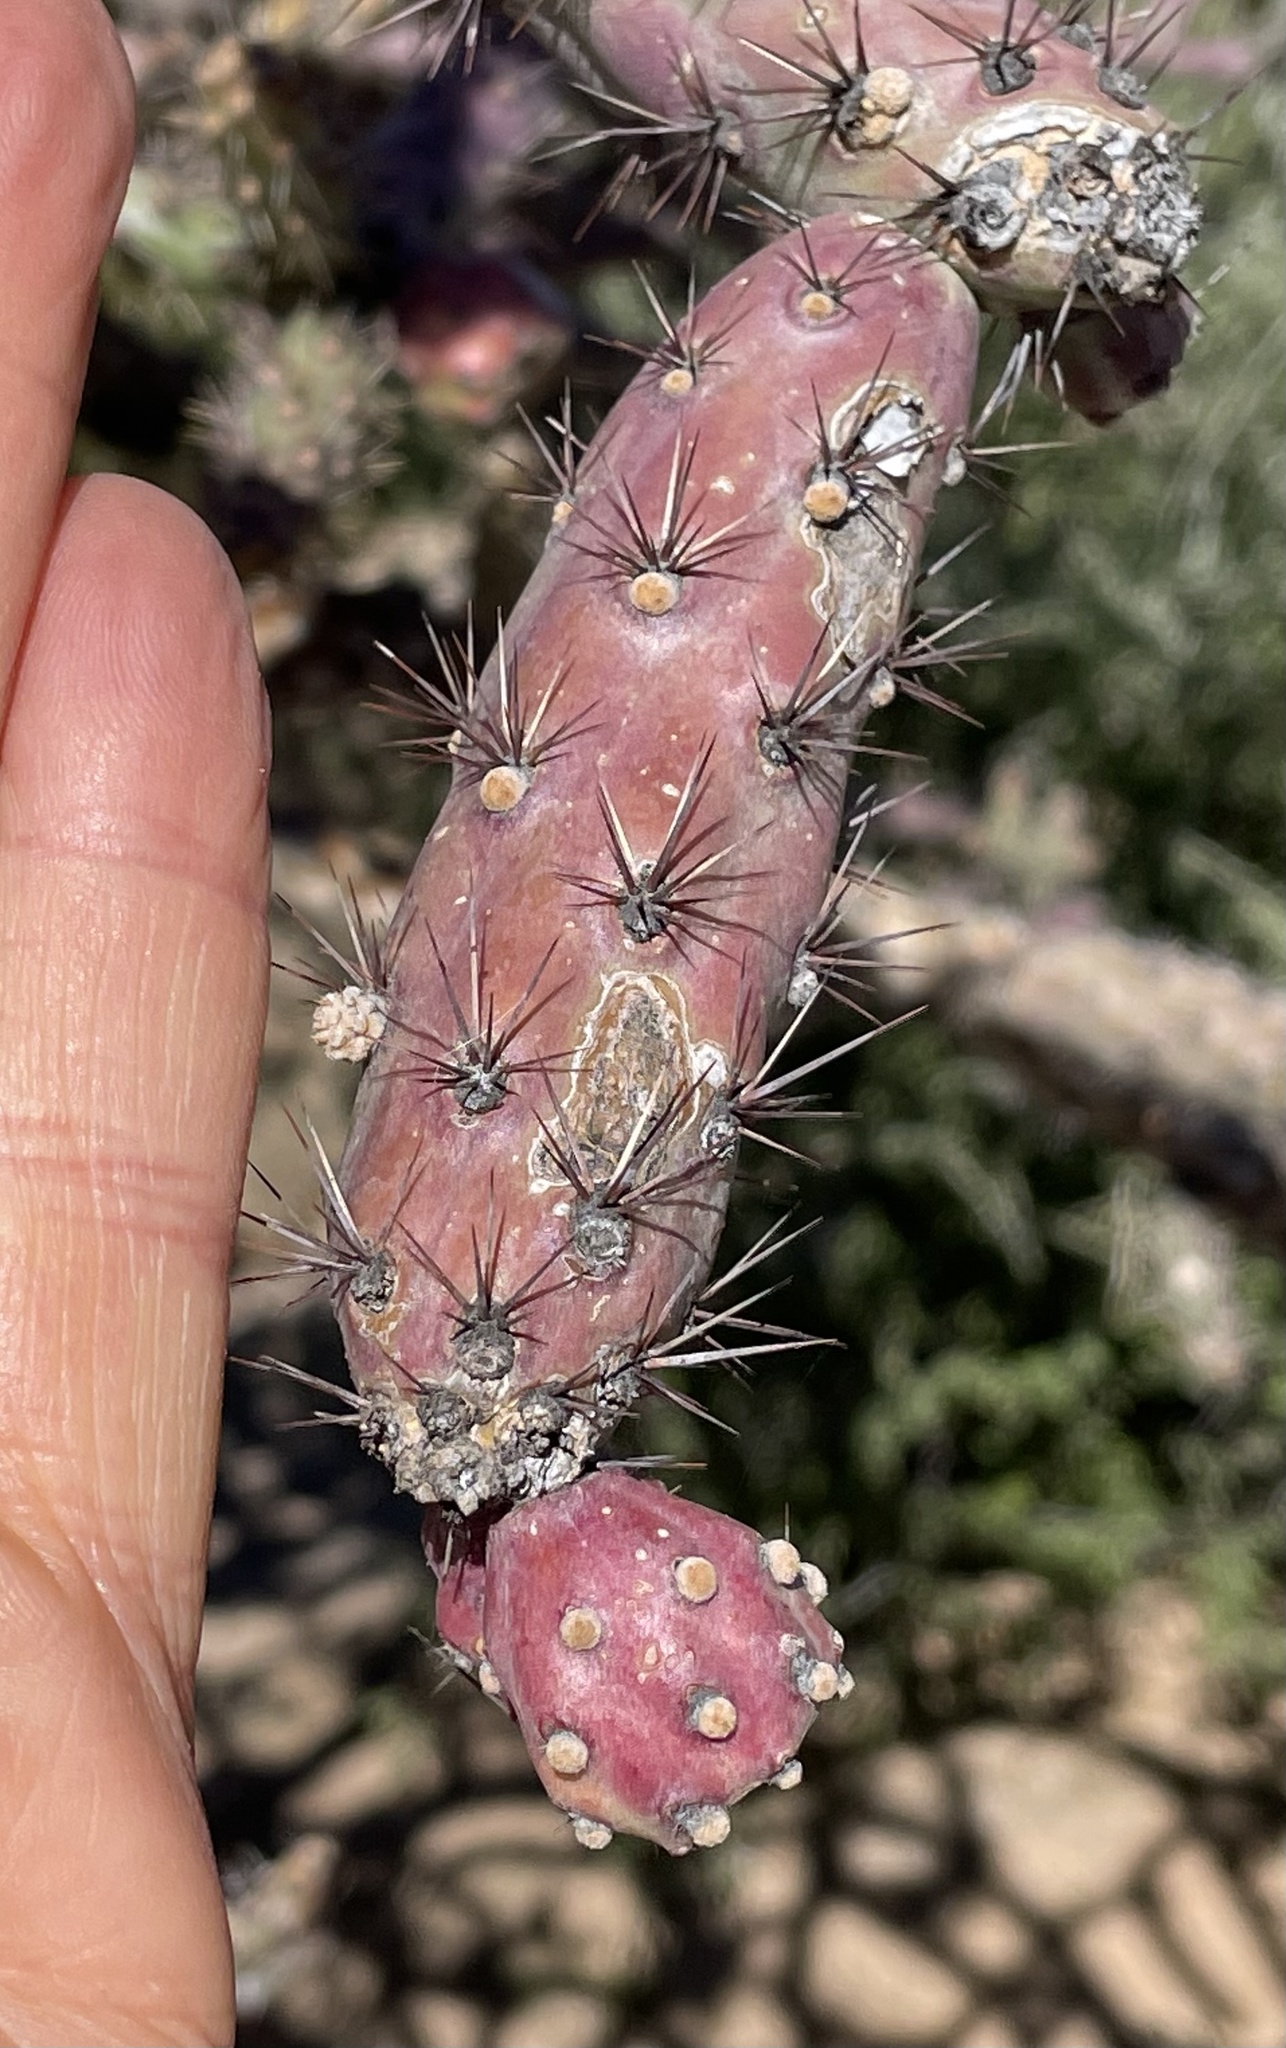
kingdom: Plantae
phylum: Tracheophyta
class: Magnoliopsida
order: Caryophyllales
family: Cactaceae
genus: Cylindropuntia
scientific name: Cylindropuntia thurberi
